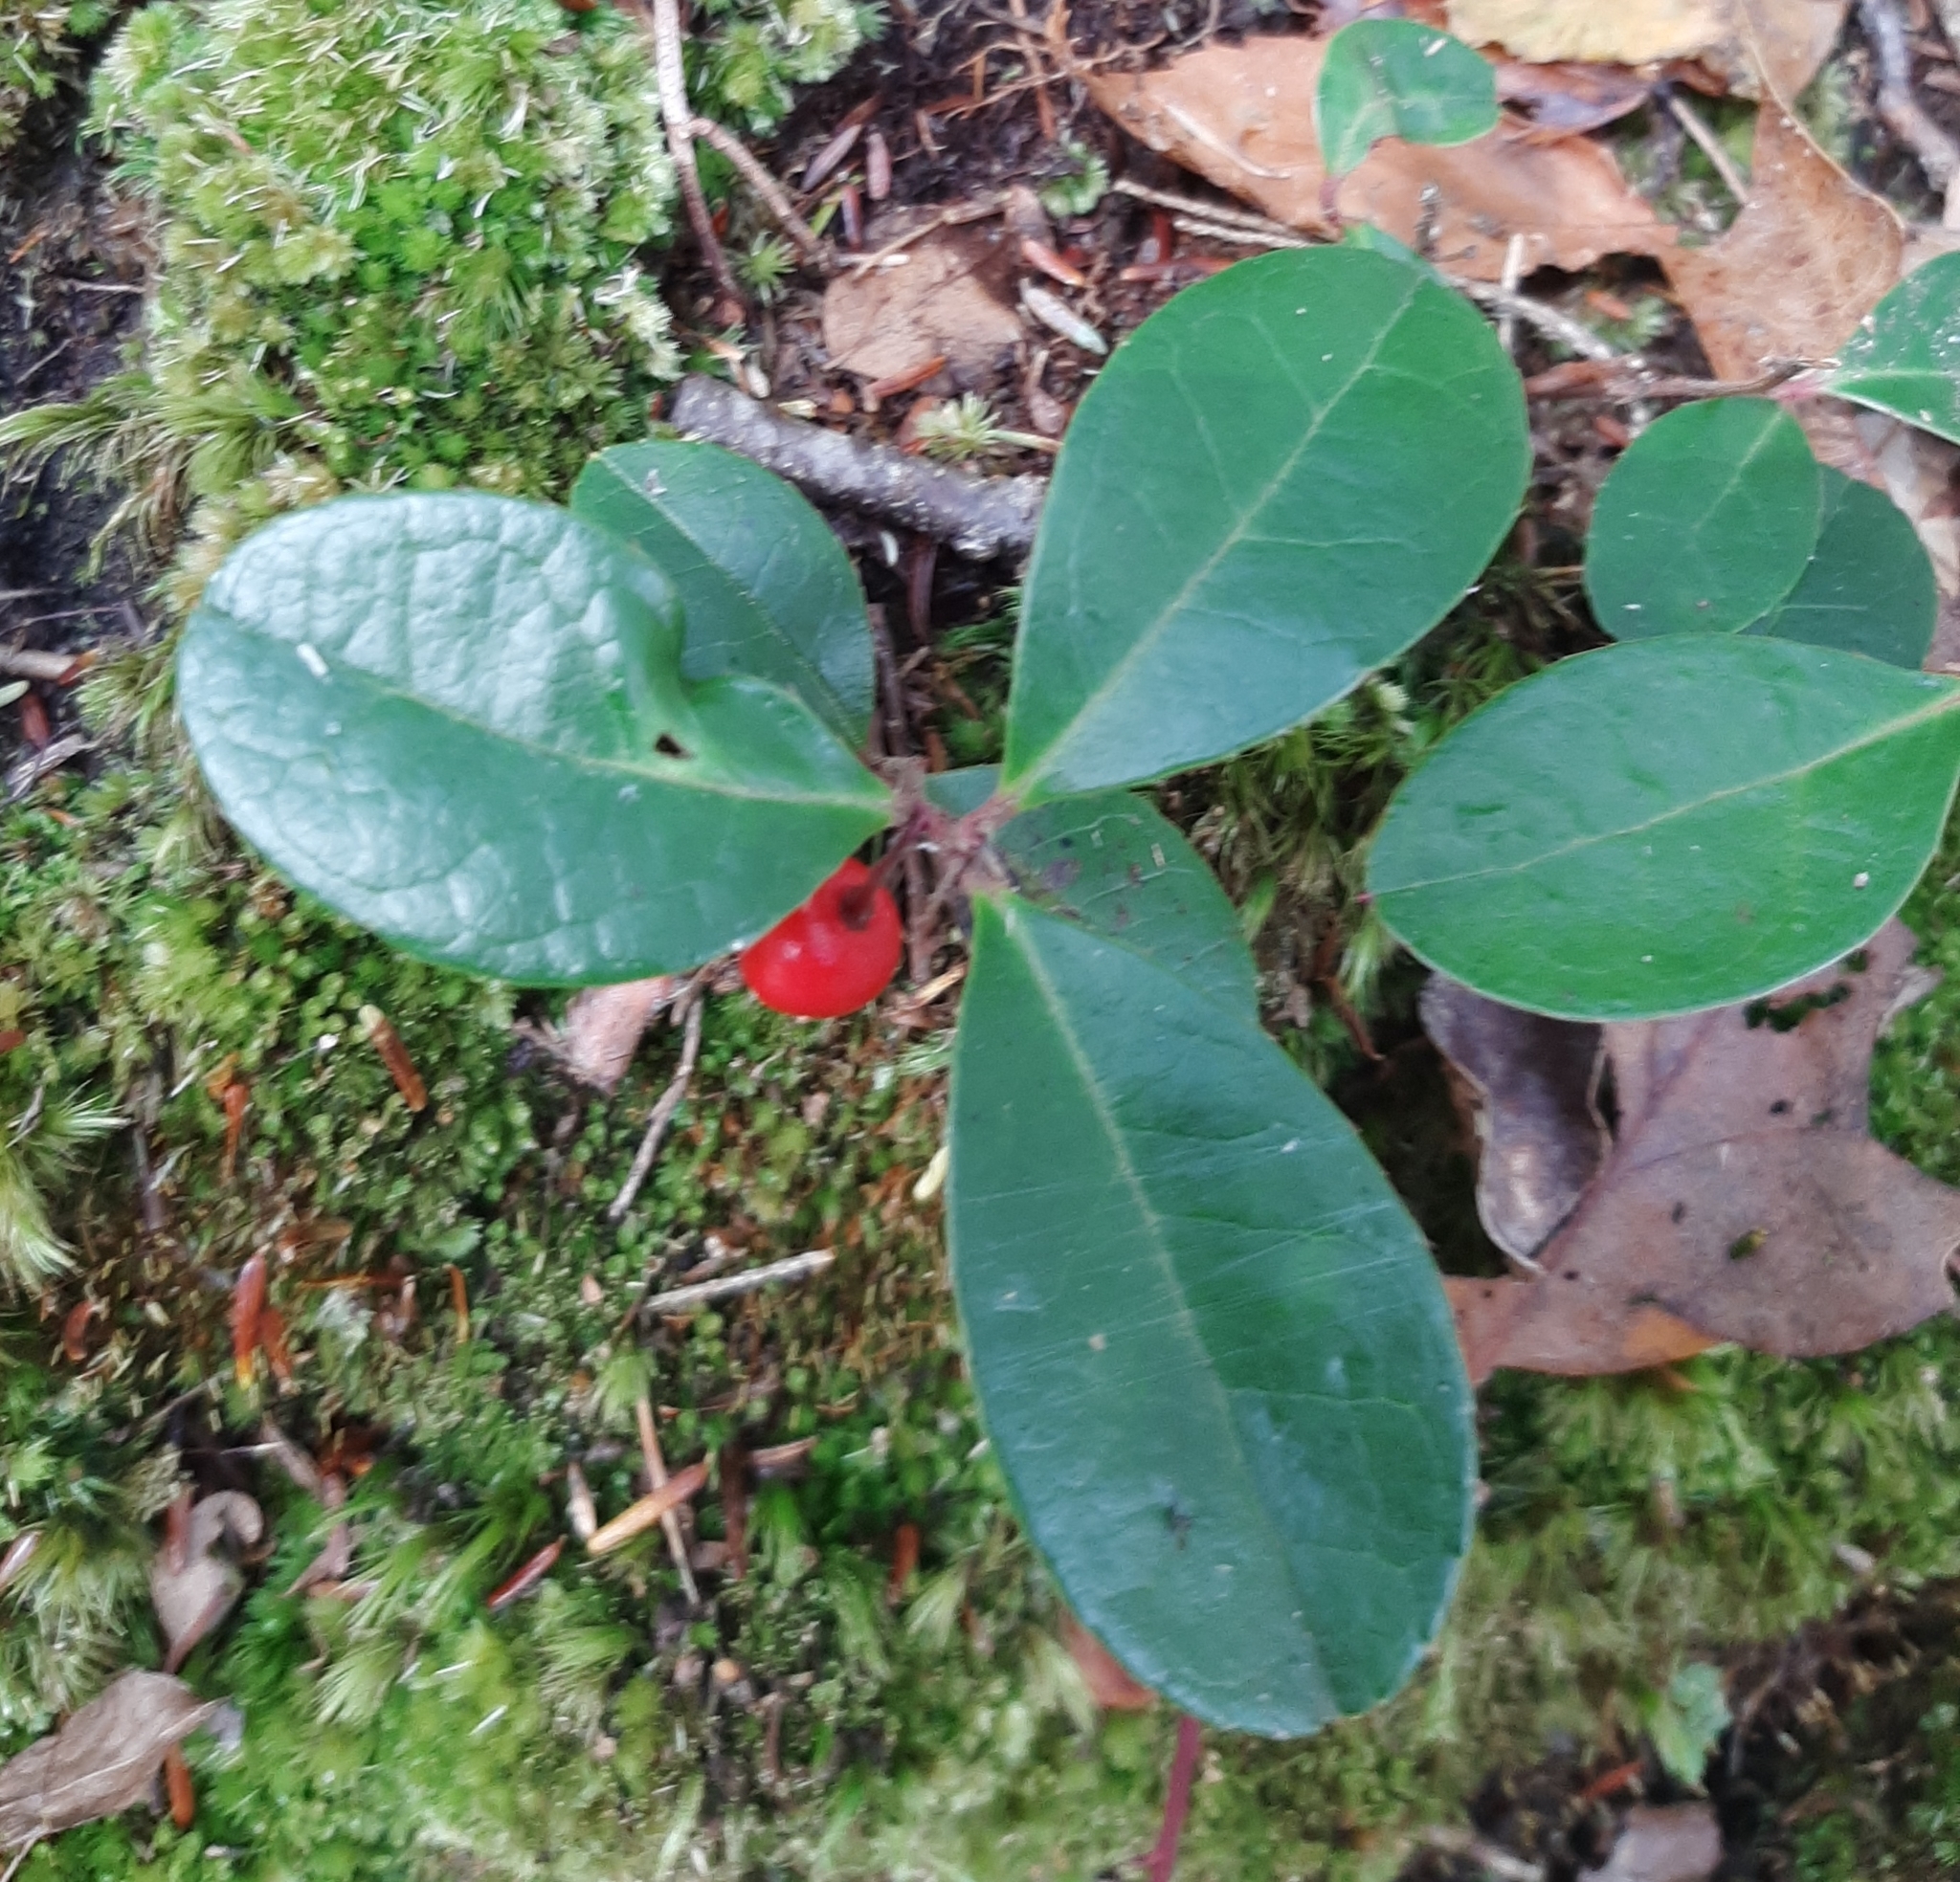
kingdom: Plantae
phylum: Tracheophyta
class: Magnoliopsida
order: Ericales
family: Ericaceae
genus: Gaultheria
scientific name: Gaultheria procumbens
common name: Checkerberry
